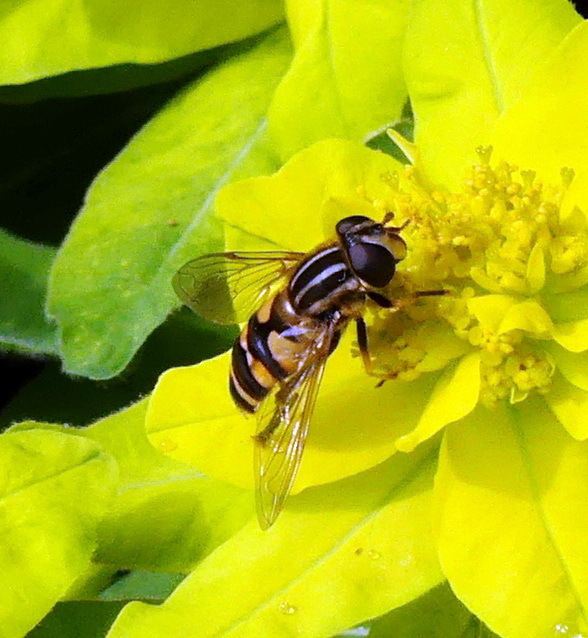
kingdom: Animalia
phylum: Arthropoda
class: Insecta
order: Diptera
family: Syrphidae
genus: Helophilus
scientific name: Helophilus fasciatus
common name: Narrow-headed marsh fly
